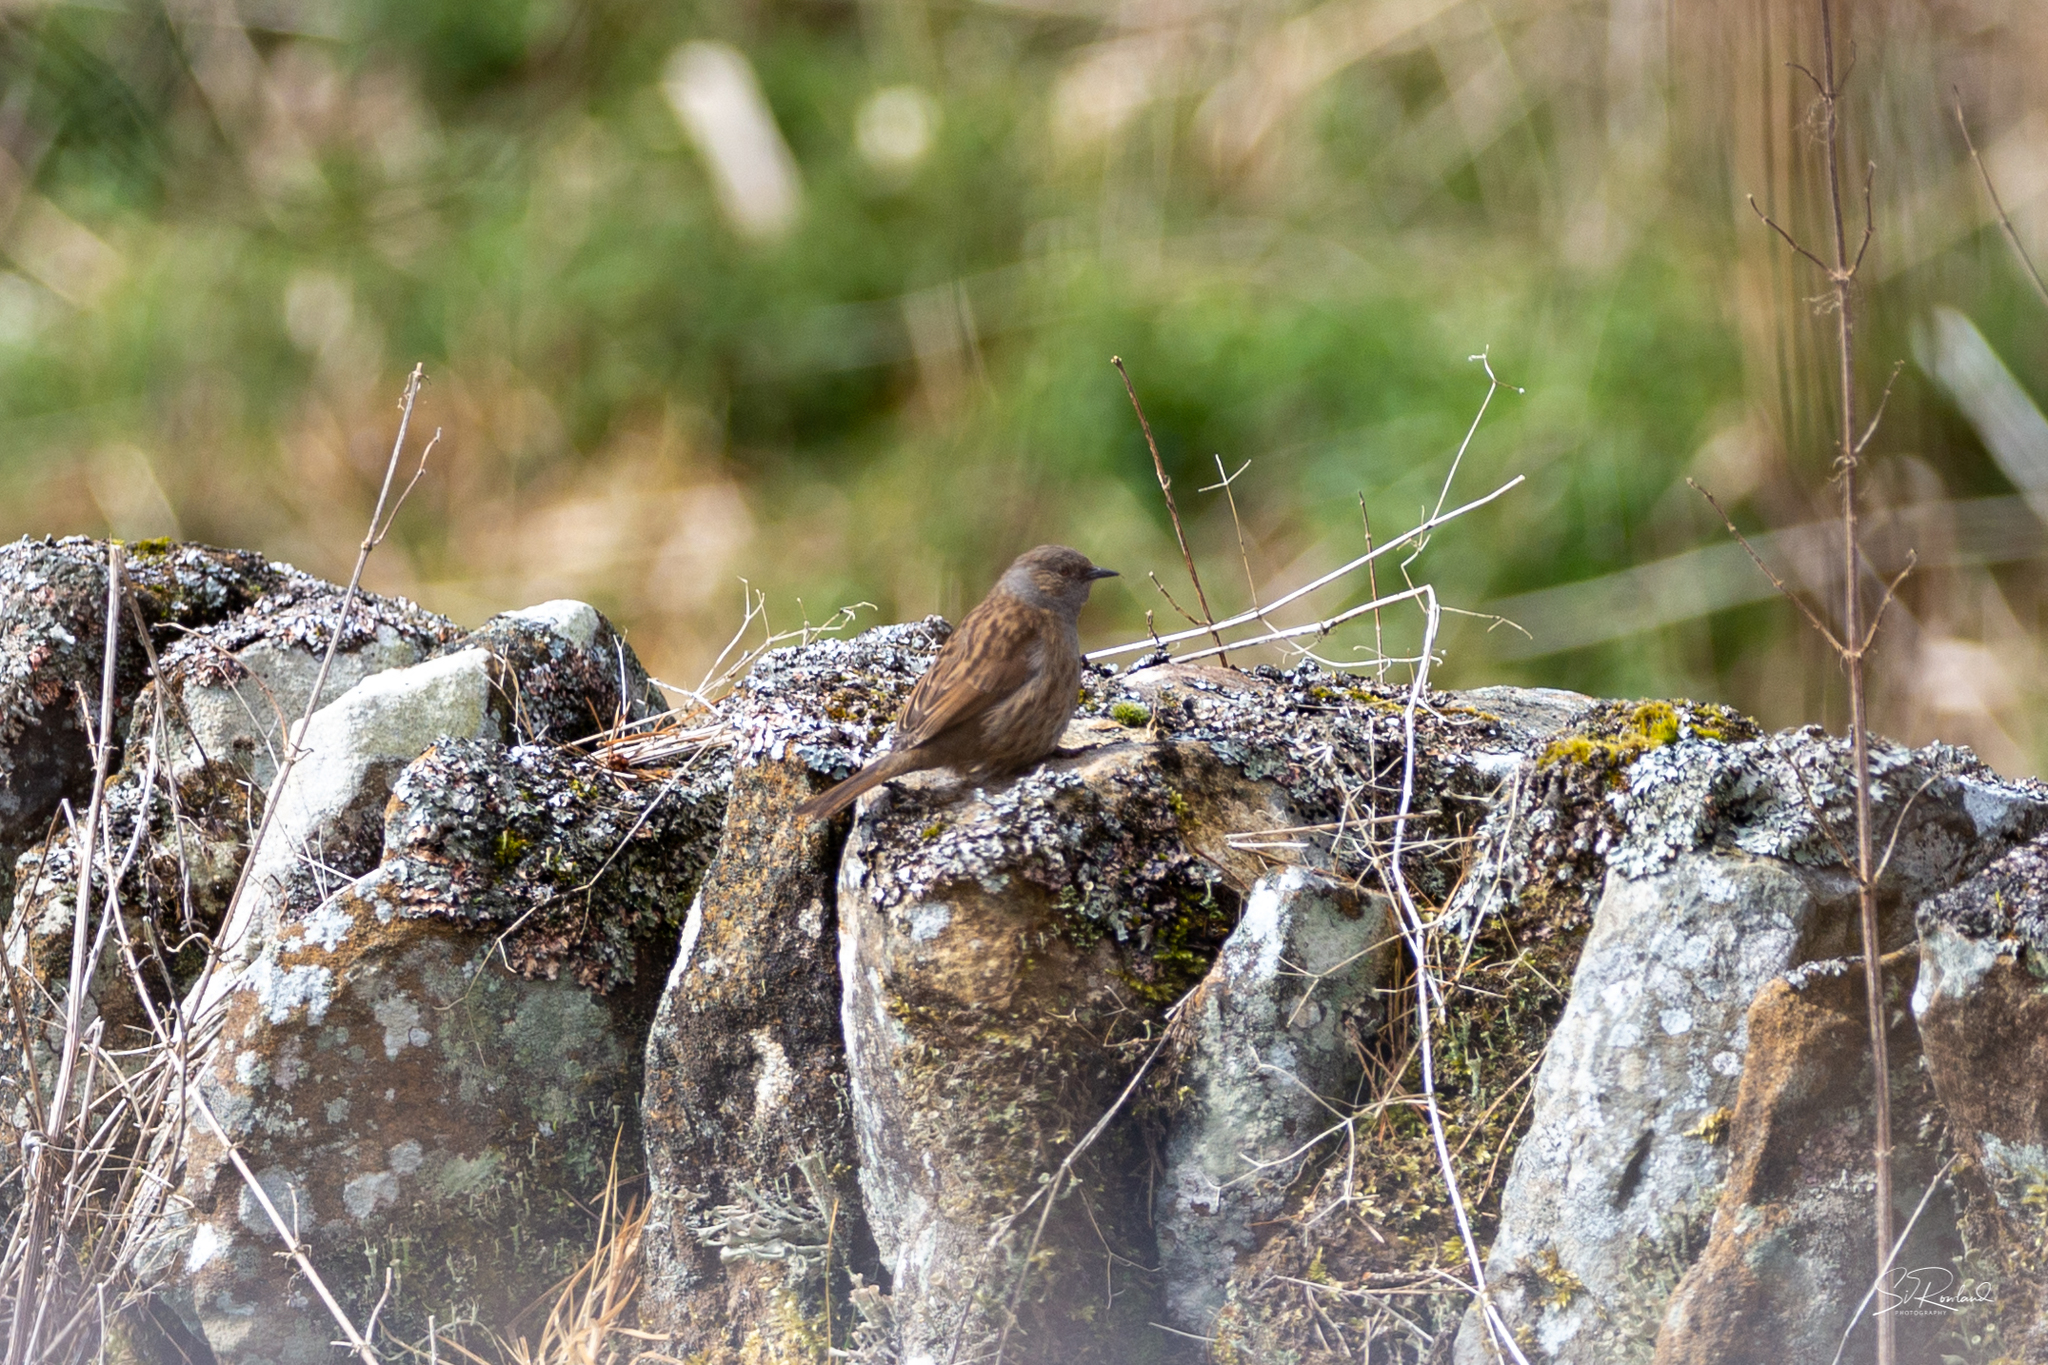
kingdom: Animalia
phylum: Chordata
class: Aves
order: Passeriformes
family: Prunellidae
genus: Prunella
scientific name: Prunella modularis
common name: Dunnock
